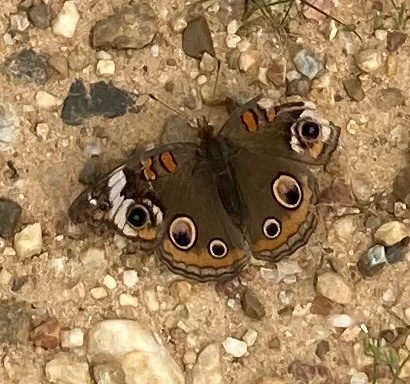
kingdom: Animalia
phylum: Arthropoda
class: Insecta
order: Lepidoptera
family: Nymphalidae
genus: Junonia
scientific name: Junonia coenia
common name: Common buckeye
